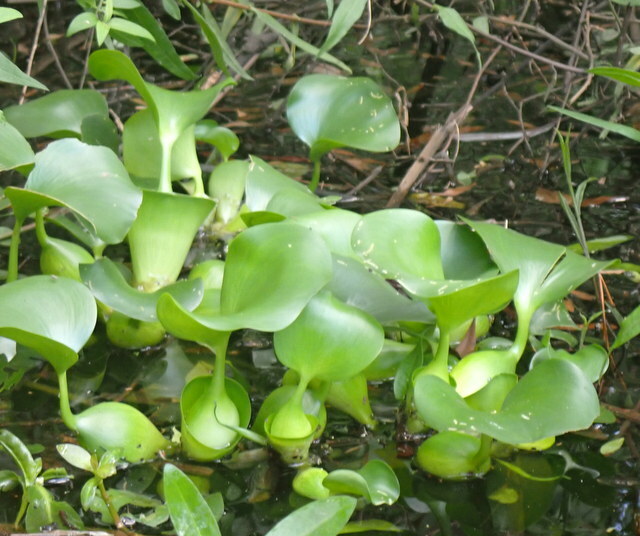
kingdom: Plantae
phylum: Tracheophyta
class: Liliopsida
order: Commelinales
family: Pontederiaceae
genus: Pontederia
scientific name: Pontederia crassipes
